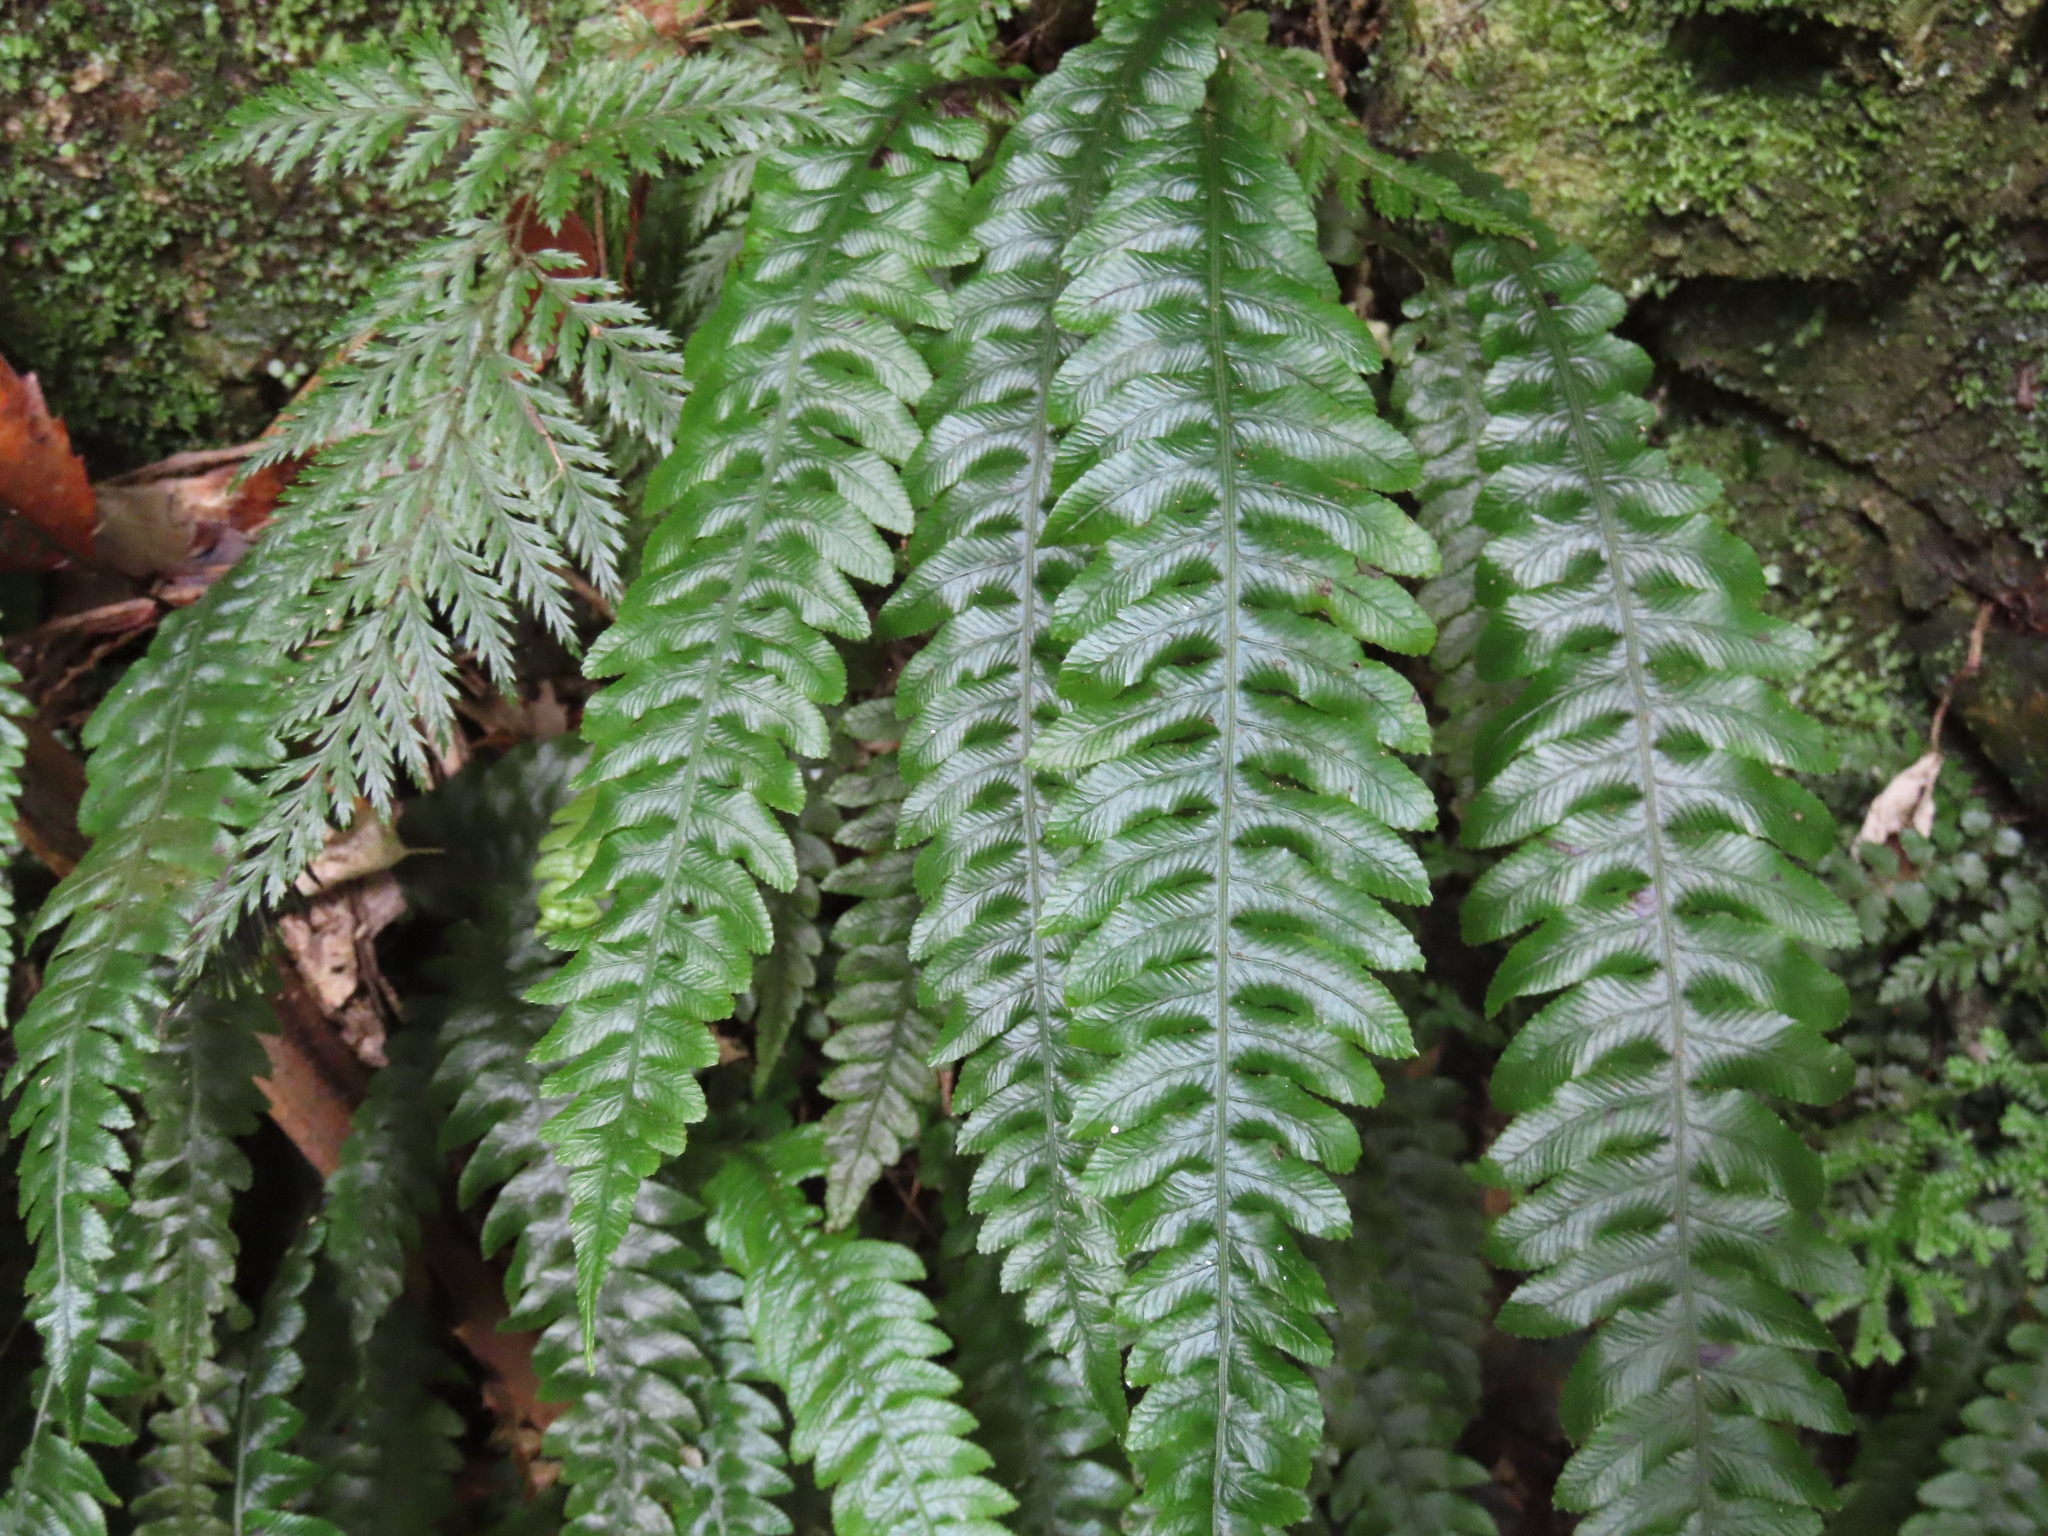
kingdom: Plantae
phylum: Tracheophyta
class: Polypodiopsida
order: Polypodiales
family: Blechnaceae
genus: Austroblechnum
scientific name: Austroblechnum lanceolatum
